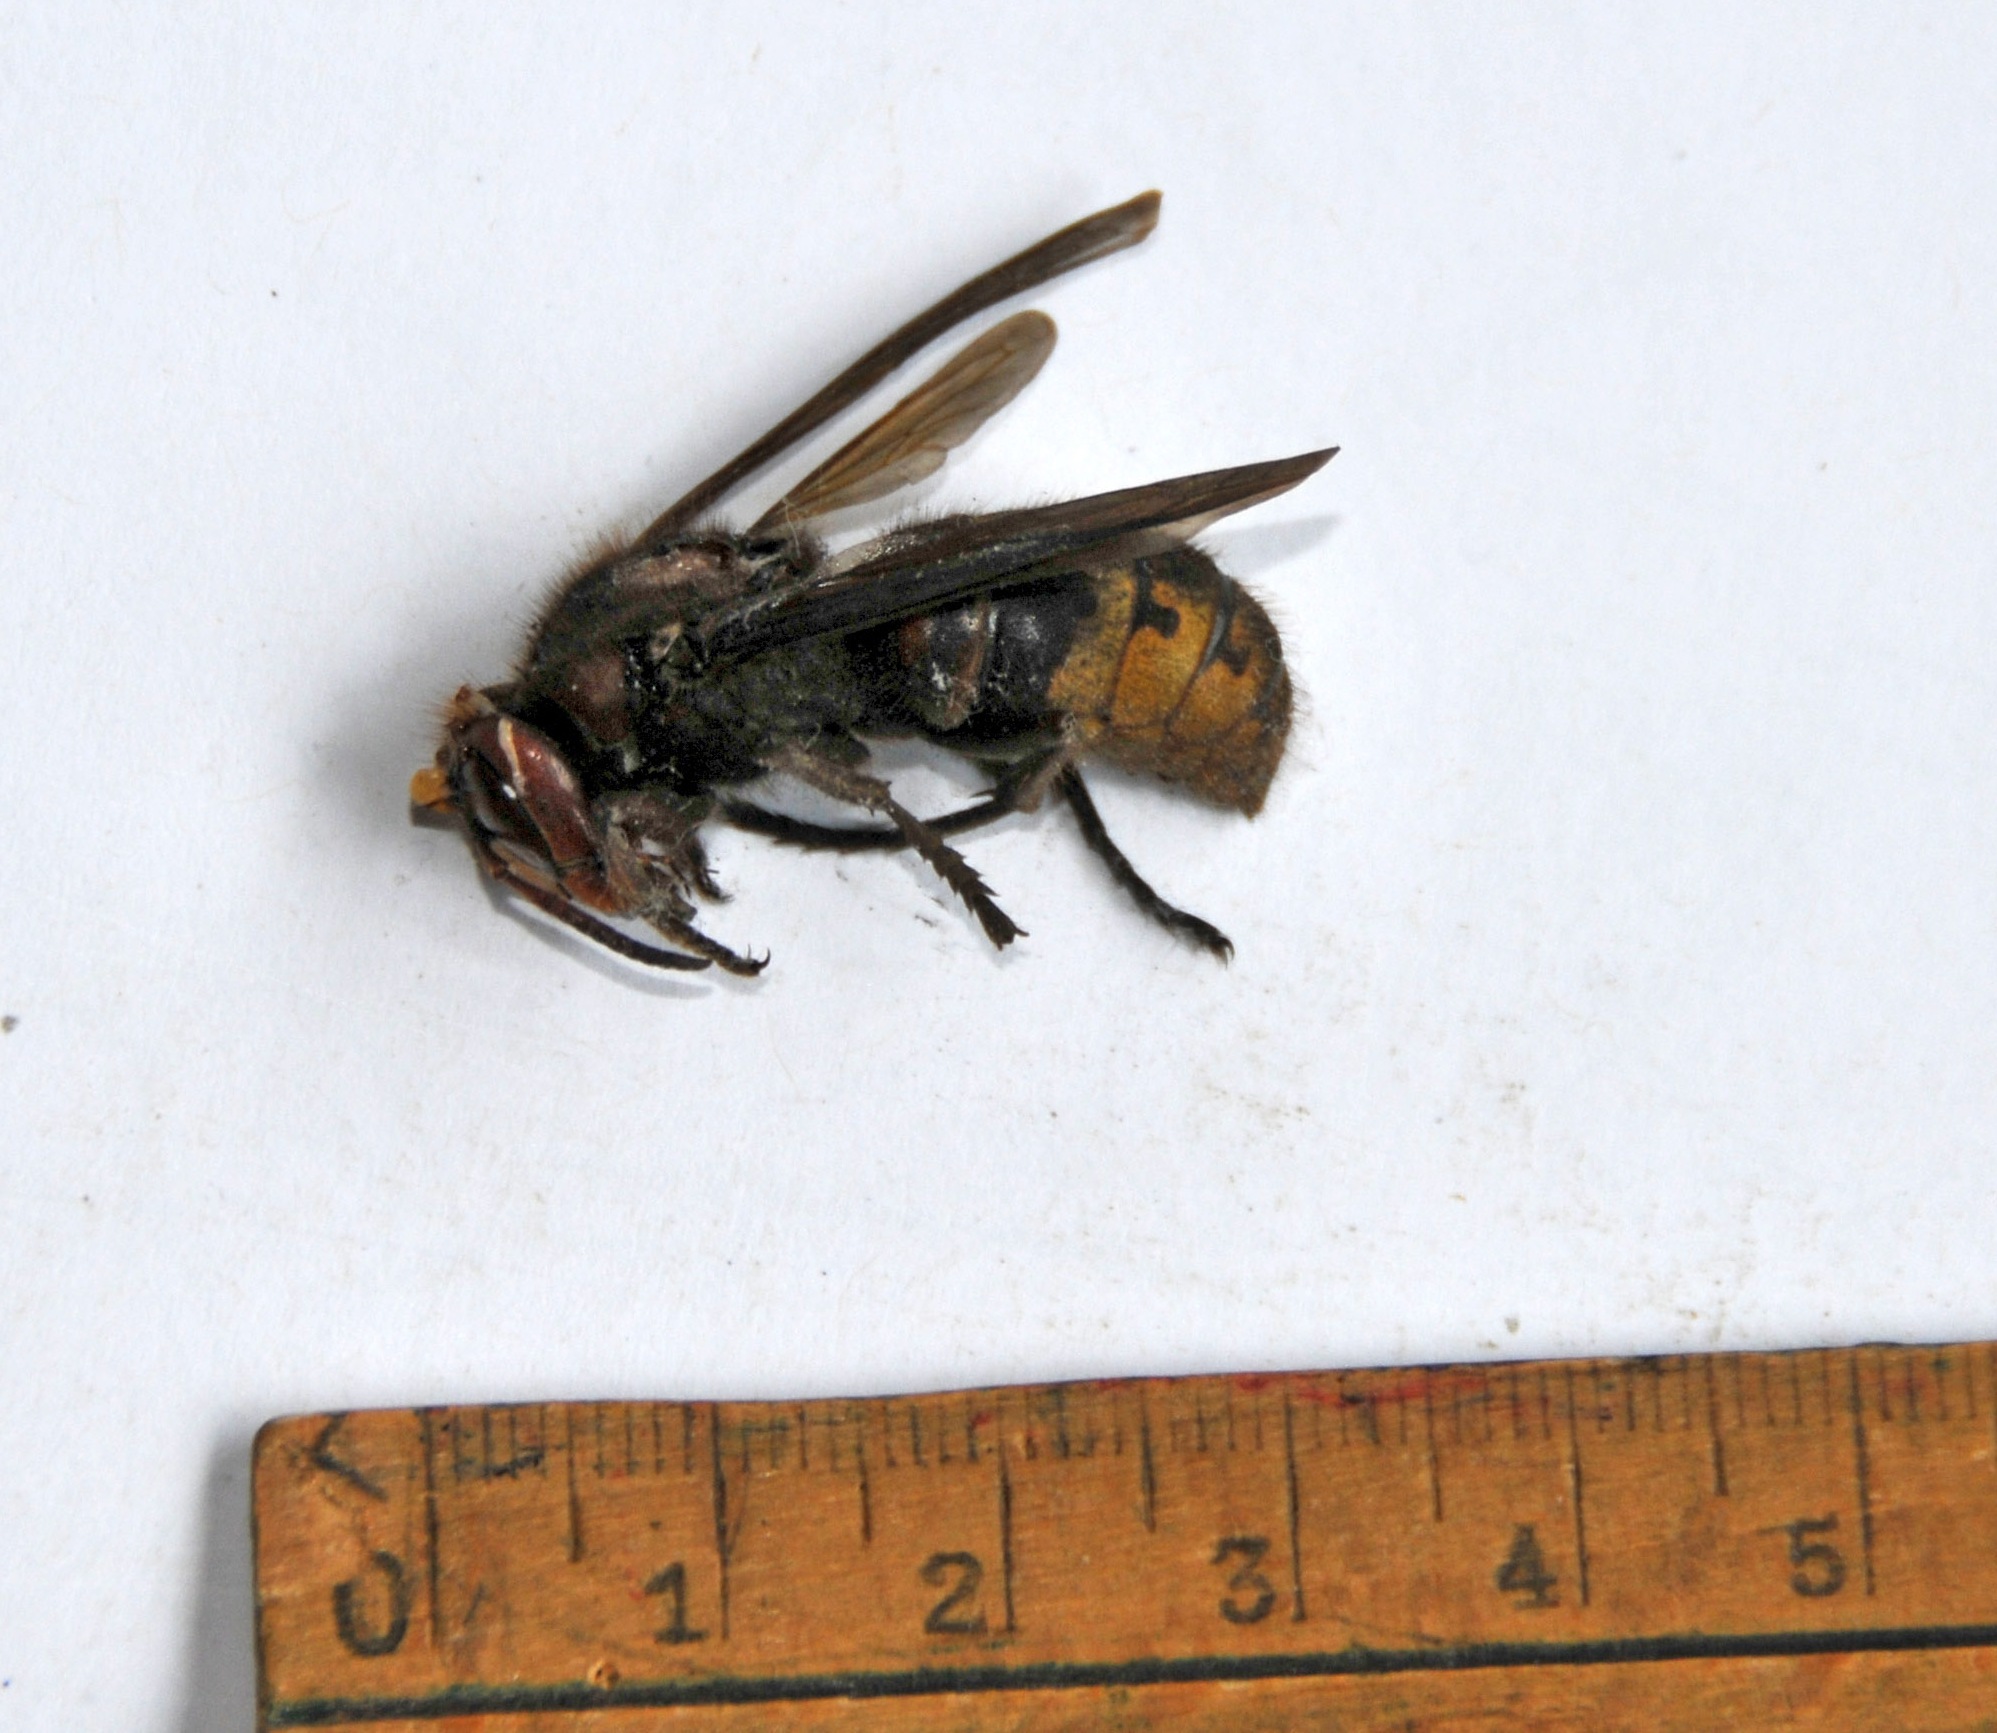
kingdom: Animalia
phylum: Arthropoda
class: Insecta
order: Hymenoptera
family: Vespidae
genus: Vespa
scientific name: Vespa crabro
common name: Hornet
